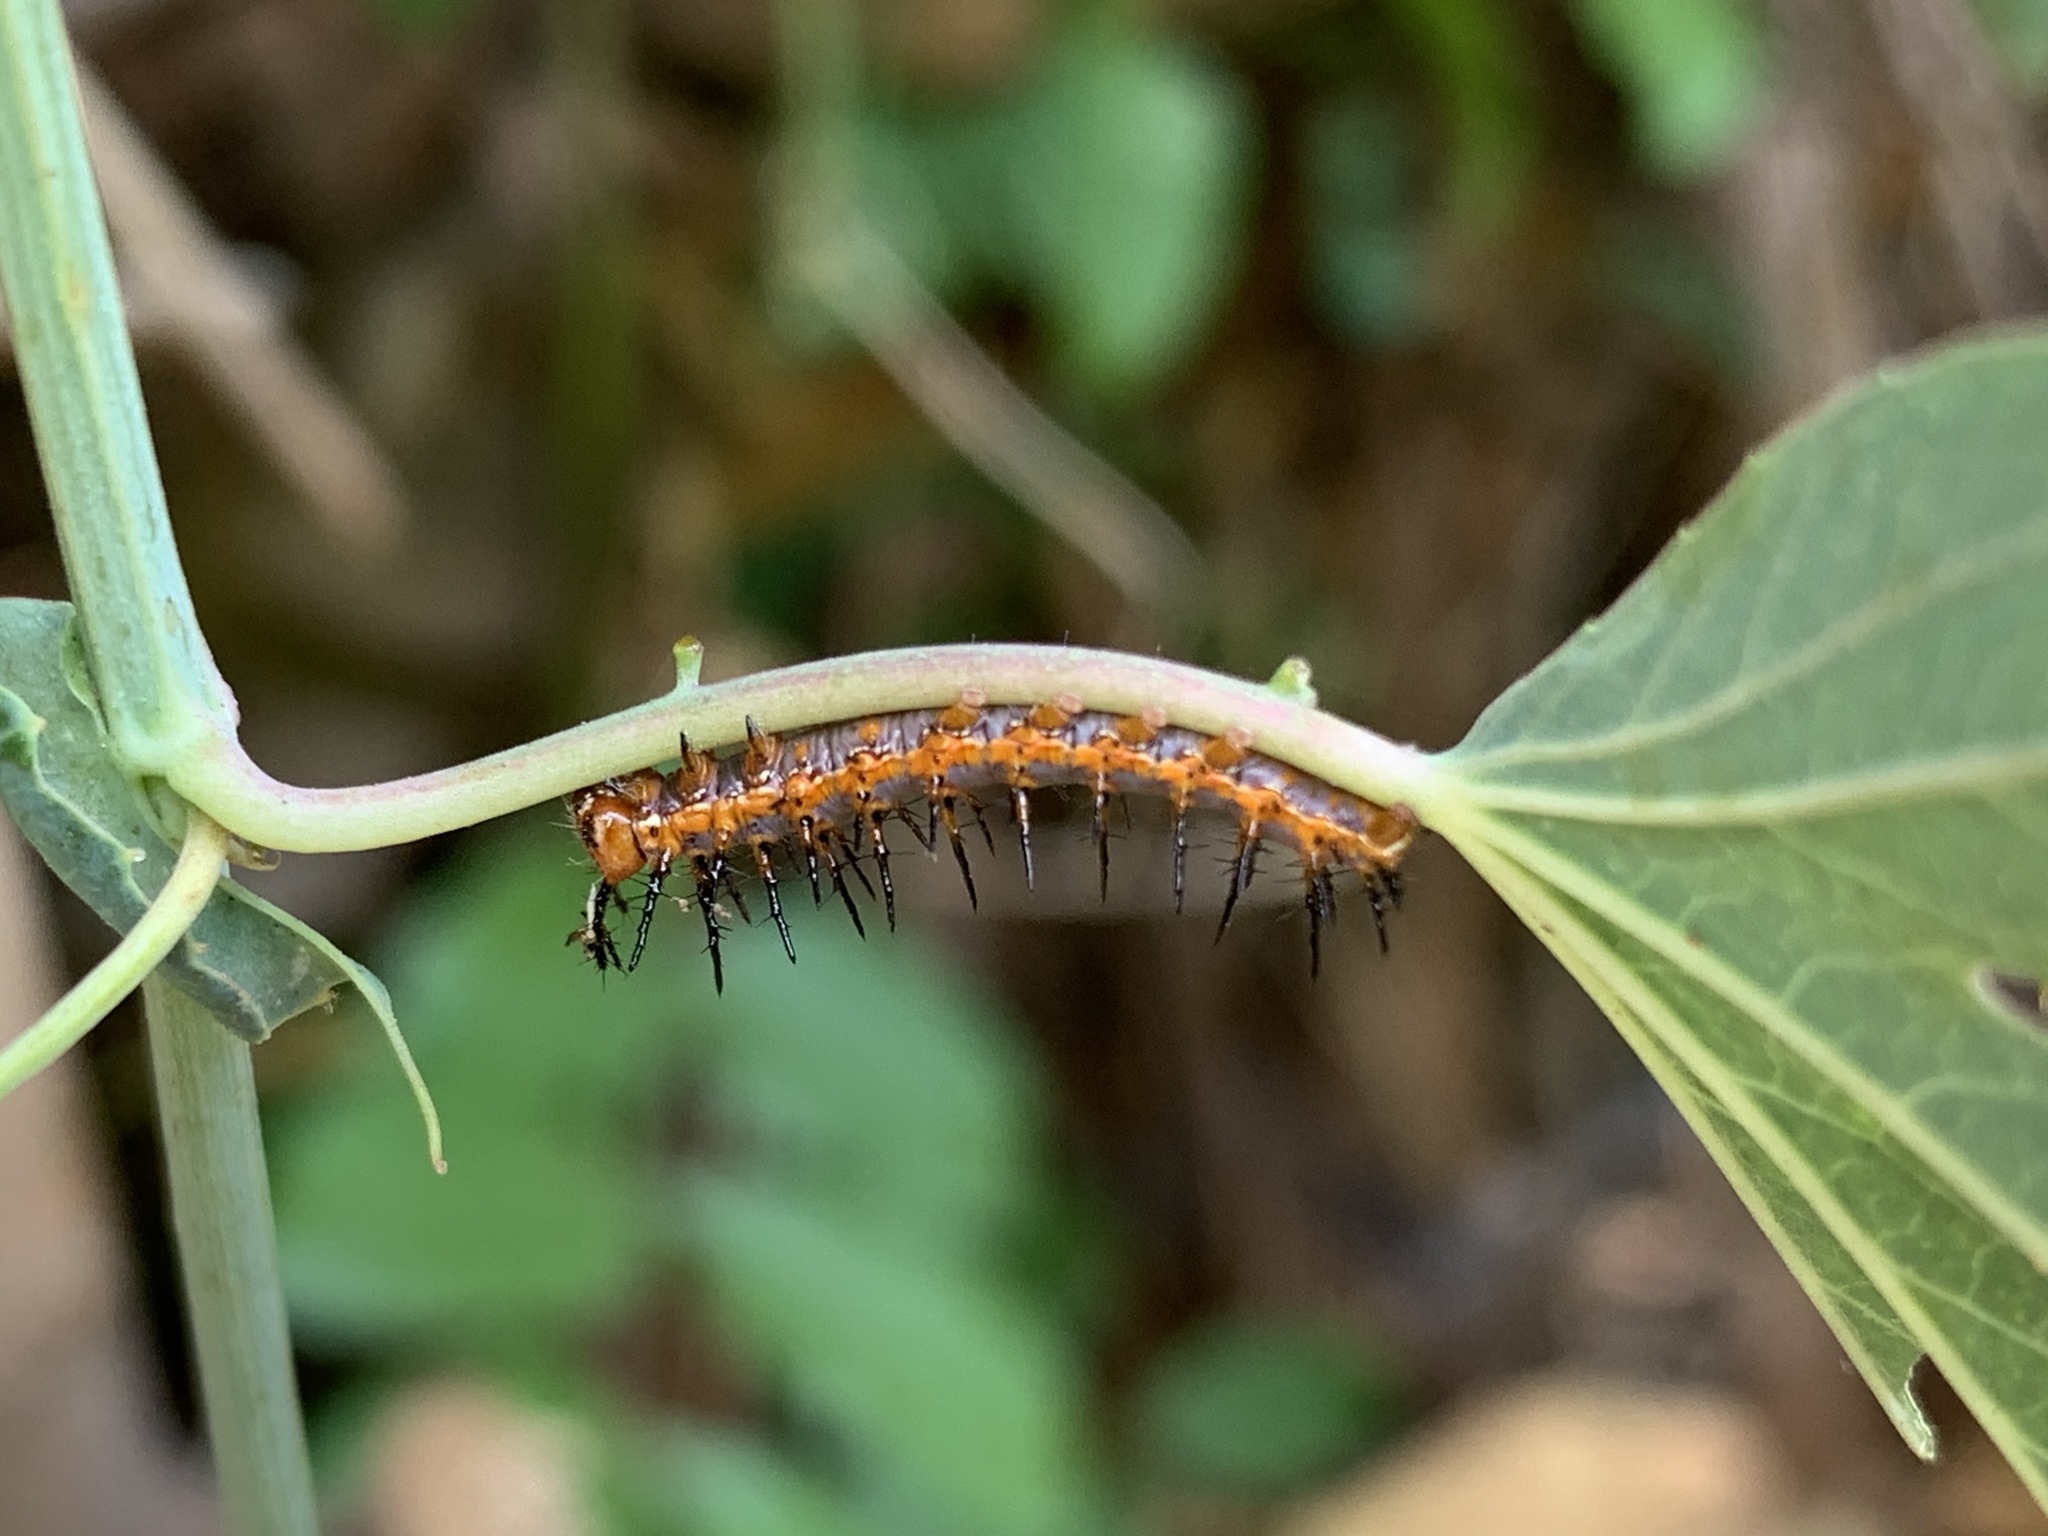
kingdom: Animalia
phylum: Arthropoda
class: Insecta
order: Lepidoptera
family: Nymphalidae
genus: Dione
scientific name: Dione vanillae
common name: Gulf fritillary
